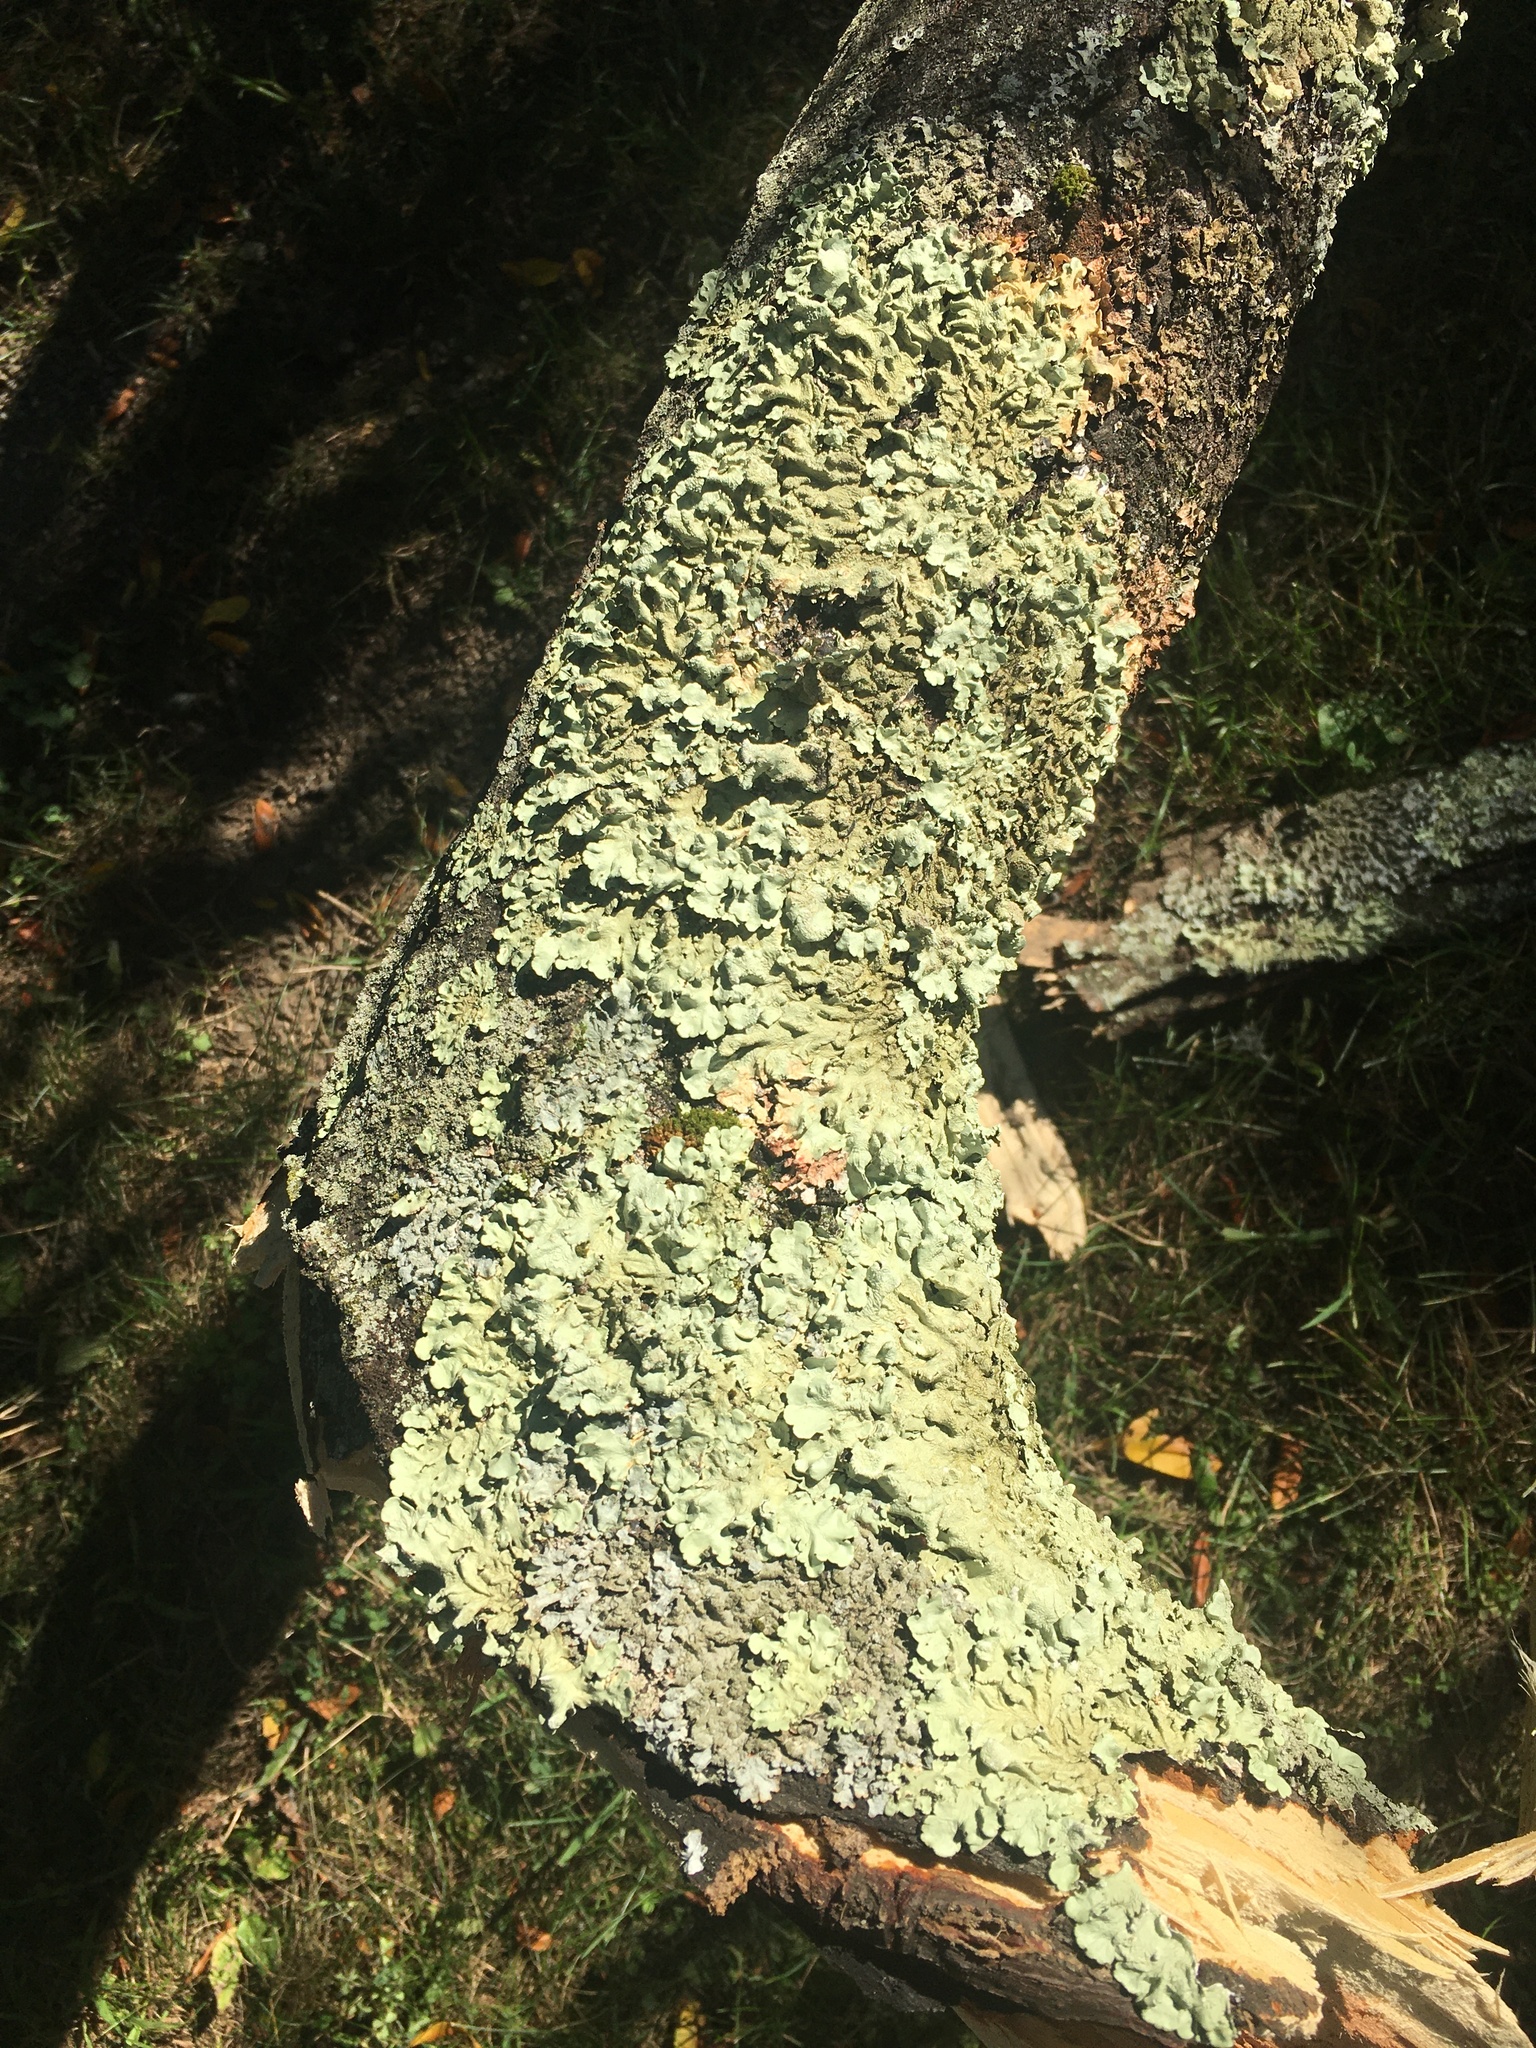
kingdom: Fungi
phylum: Ascomycota
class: Lecanoromycetes
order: Lecanorales
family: Parmeliaceae
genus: Flavoparmelia
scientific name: Flavoparmelia caperata
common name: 40-mile per hour lichen
